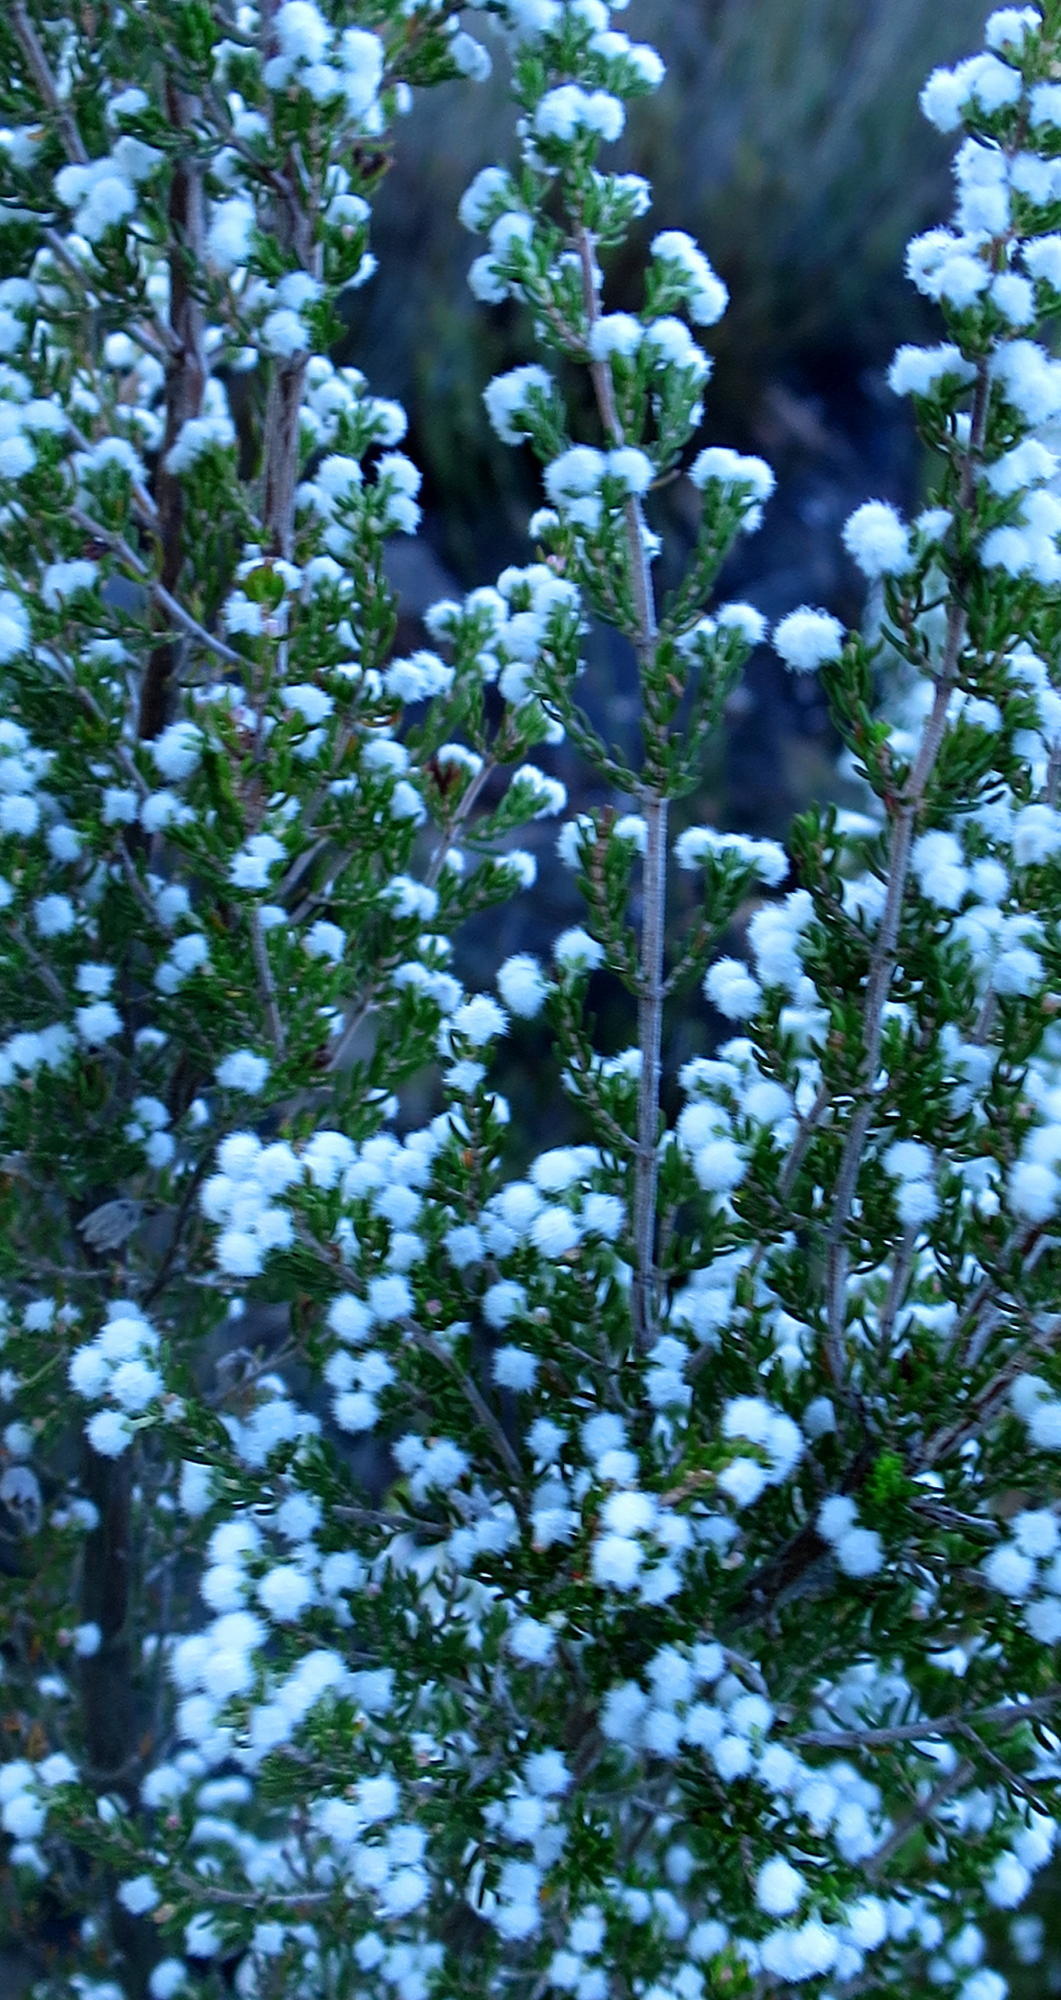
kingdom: Plantae
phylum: Tracheophyta
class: Magnoliopsida
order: Ericales
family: Ericaceae
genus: Erica
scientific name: Erica peziza
